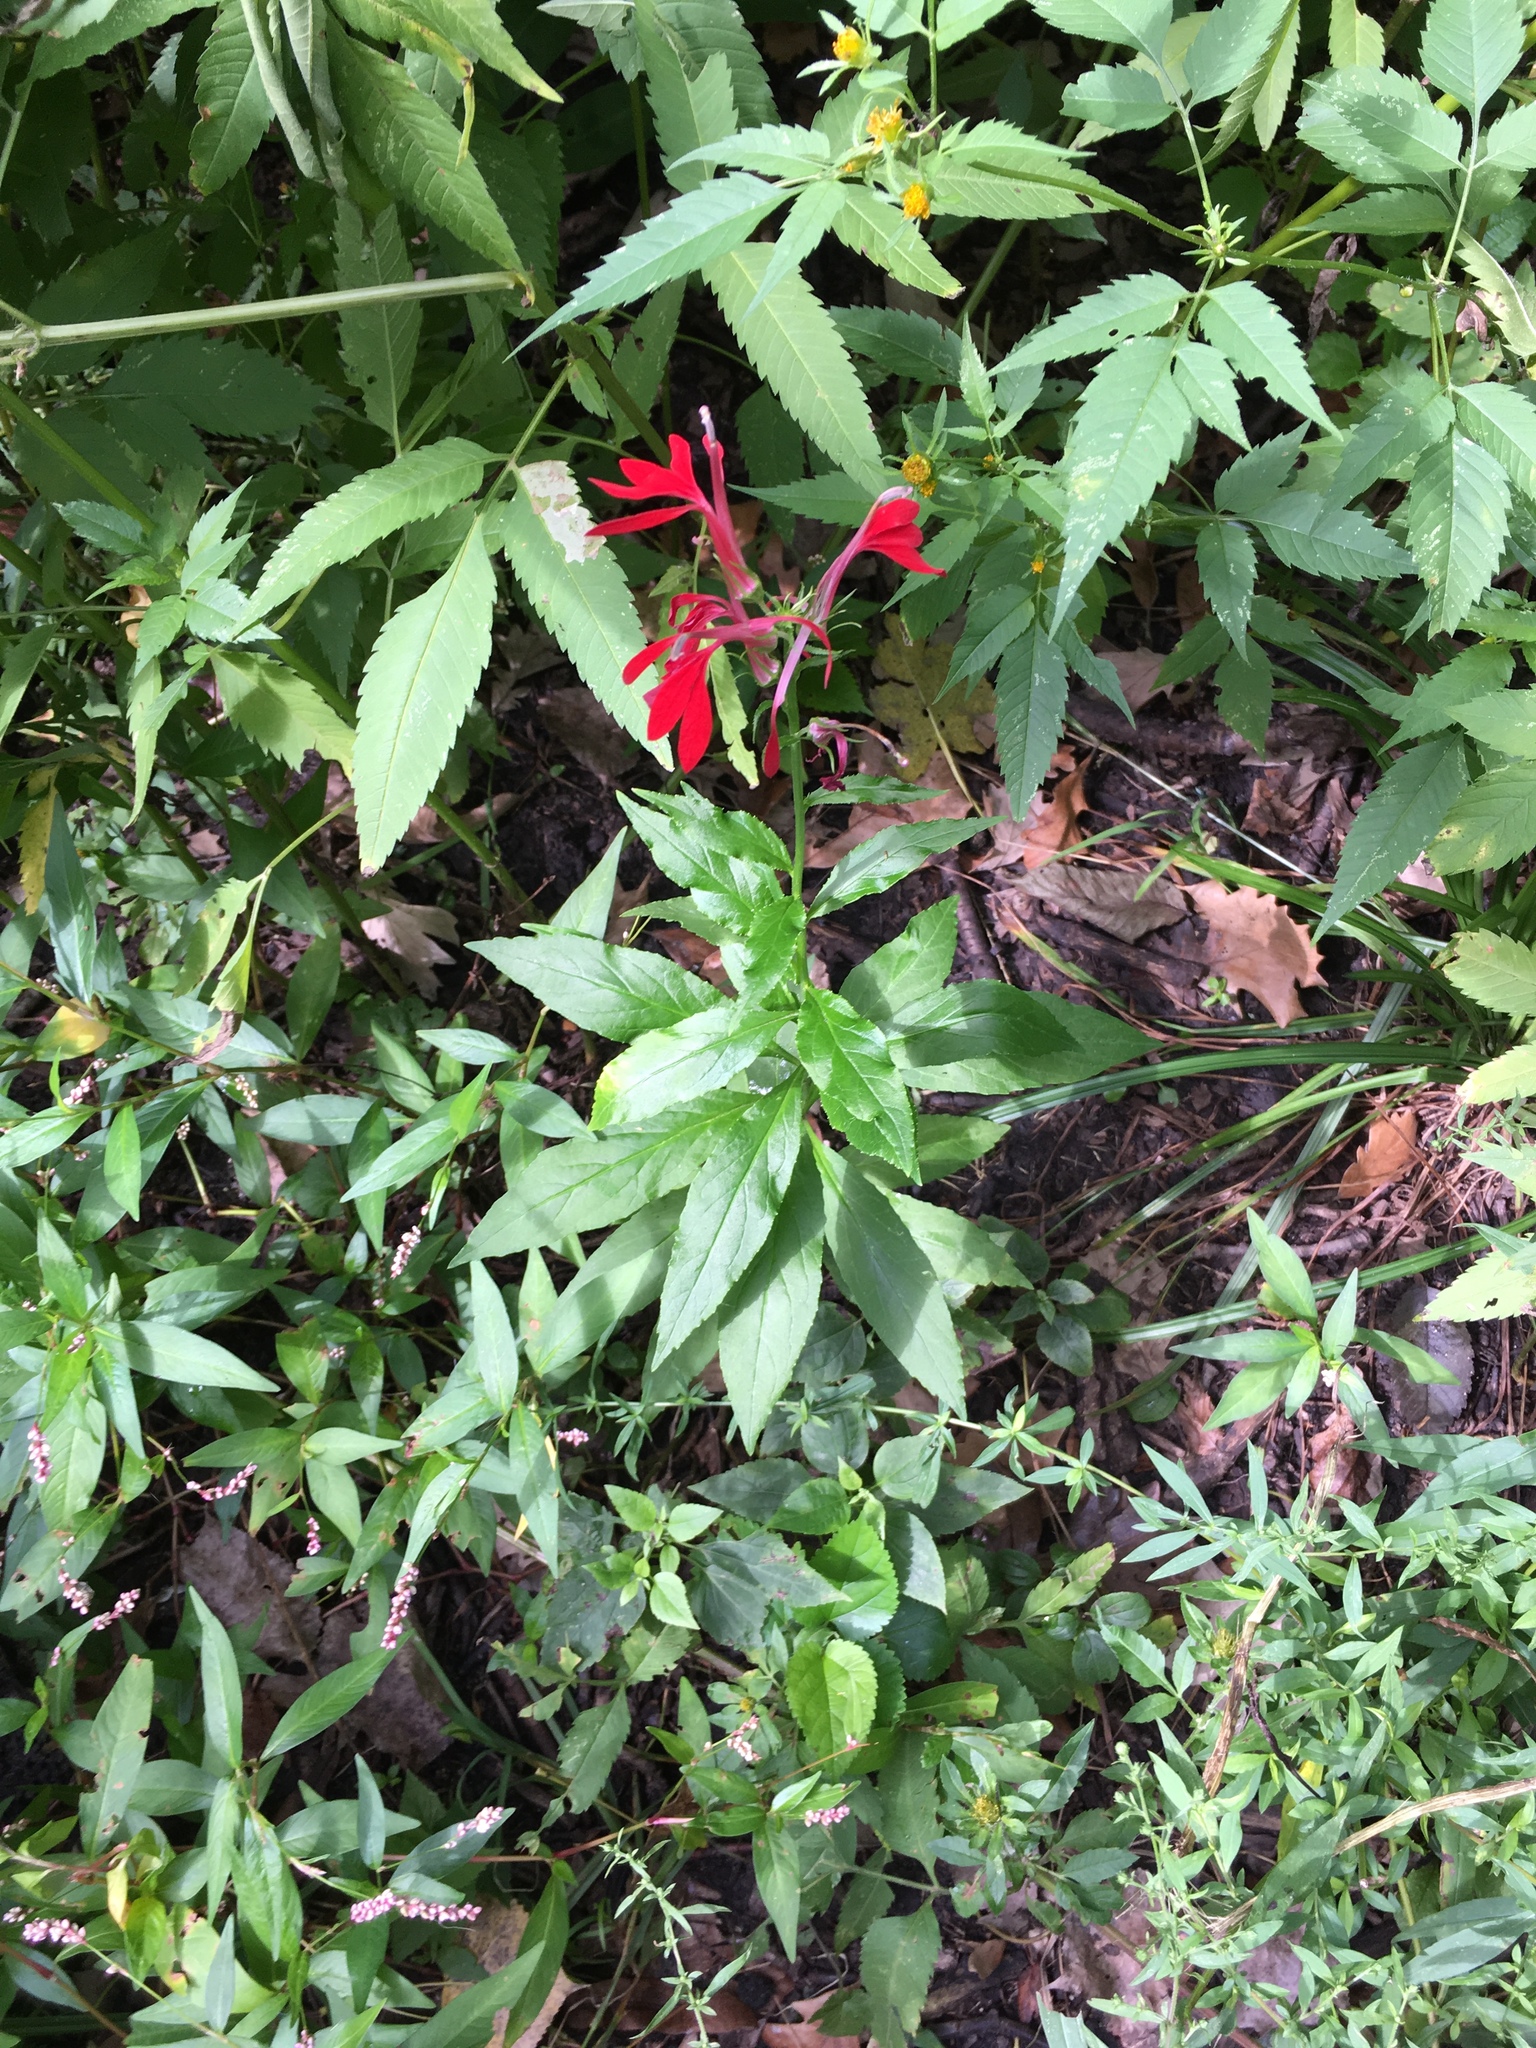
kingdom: Plantae
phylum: Tracheophyta
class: Magnoliopsida
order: Asterales
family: Campanulaceae
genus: Lobelia
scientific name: Lobelia cardinalis
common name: Cardinal flower
